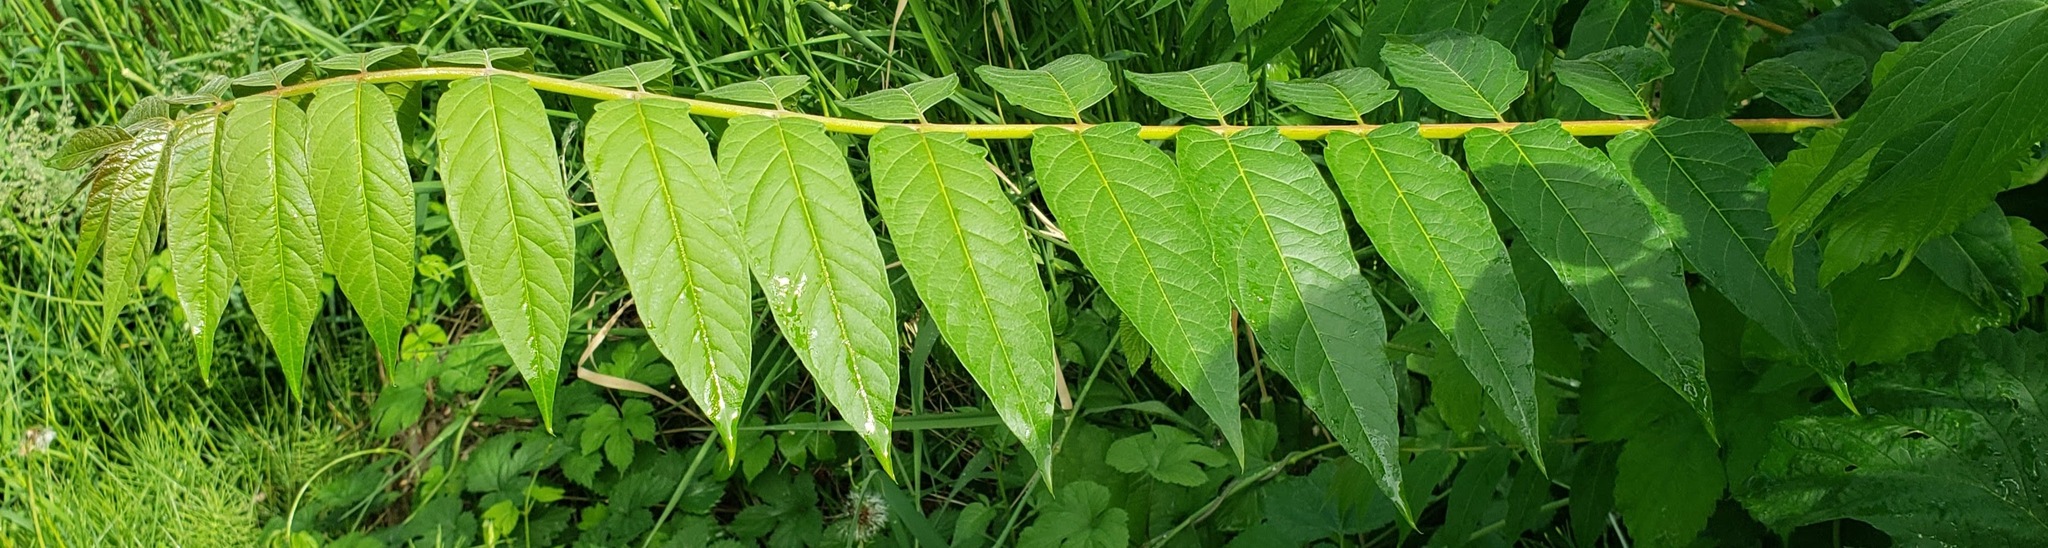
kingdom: Plantae
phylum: Tracheophyta
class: Magnoliopsida
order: Sapindales
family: Simaroubaceae
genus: Ailanthus
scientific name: Ailanthus altissima
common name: Tree-of-heaven
